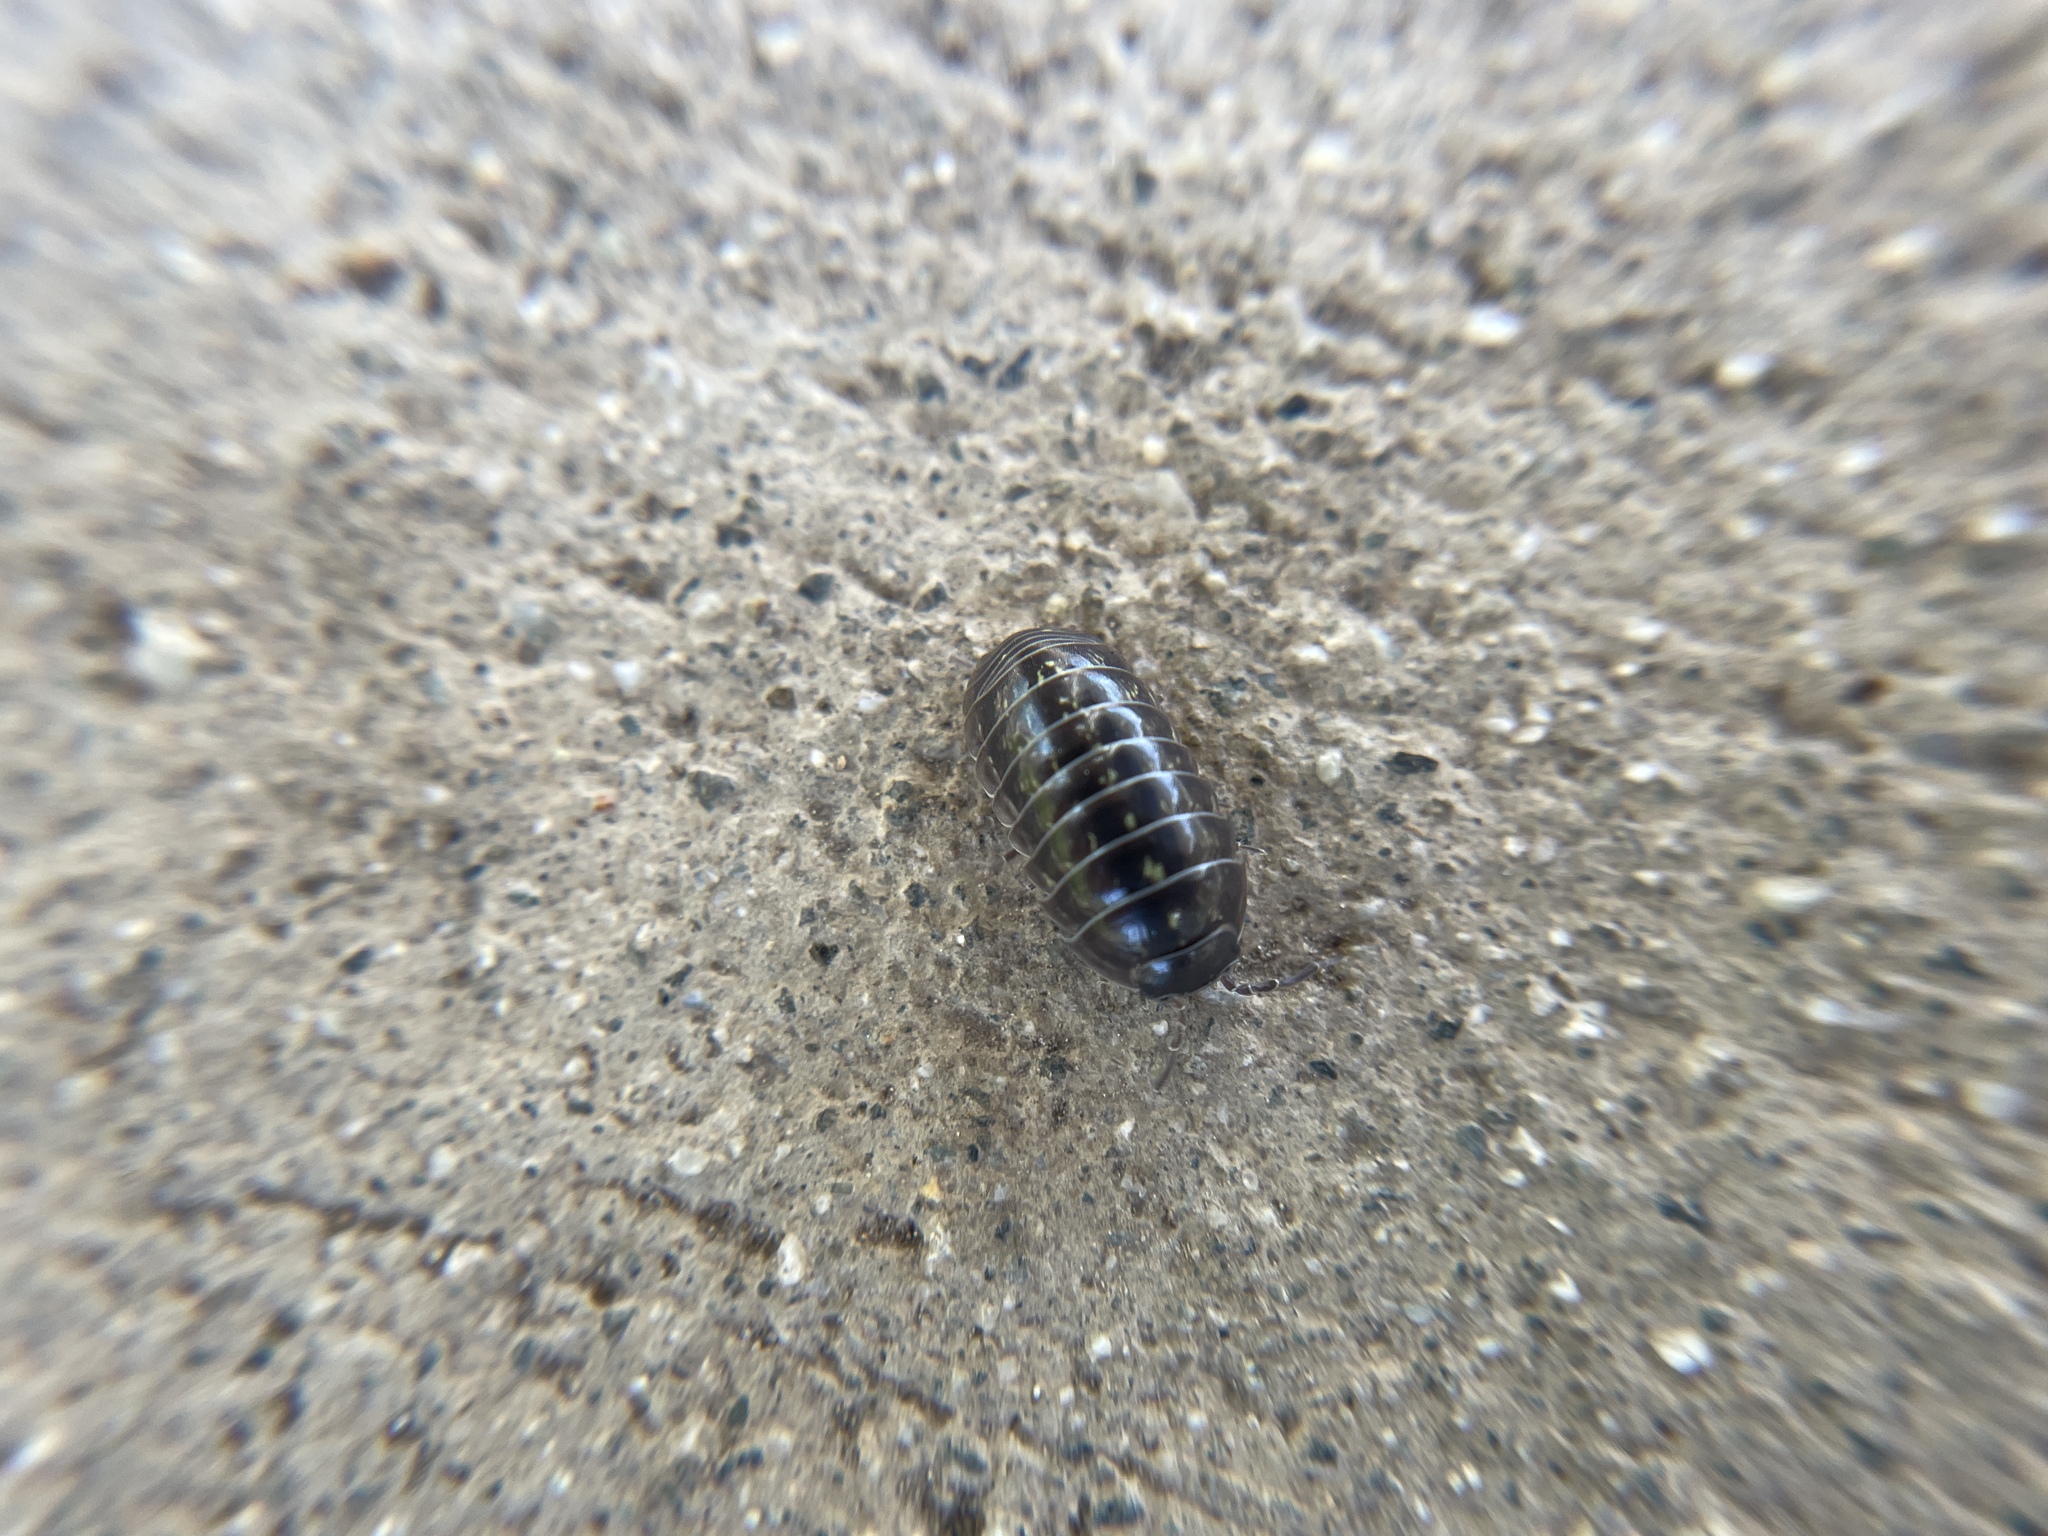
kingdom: Animalia
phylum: Arthropoda
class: Malacostraca
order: Isopoda
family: Armadillidiidae
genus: Armadillidium
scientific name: Armadillidium vulgare
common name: Common pill woodlouse
